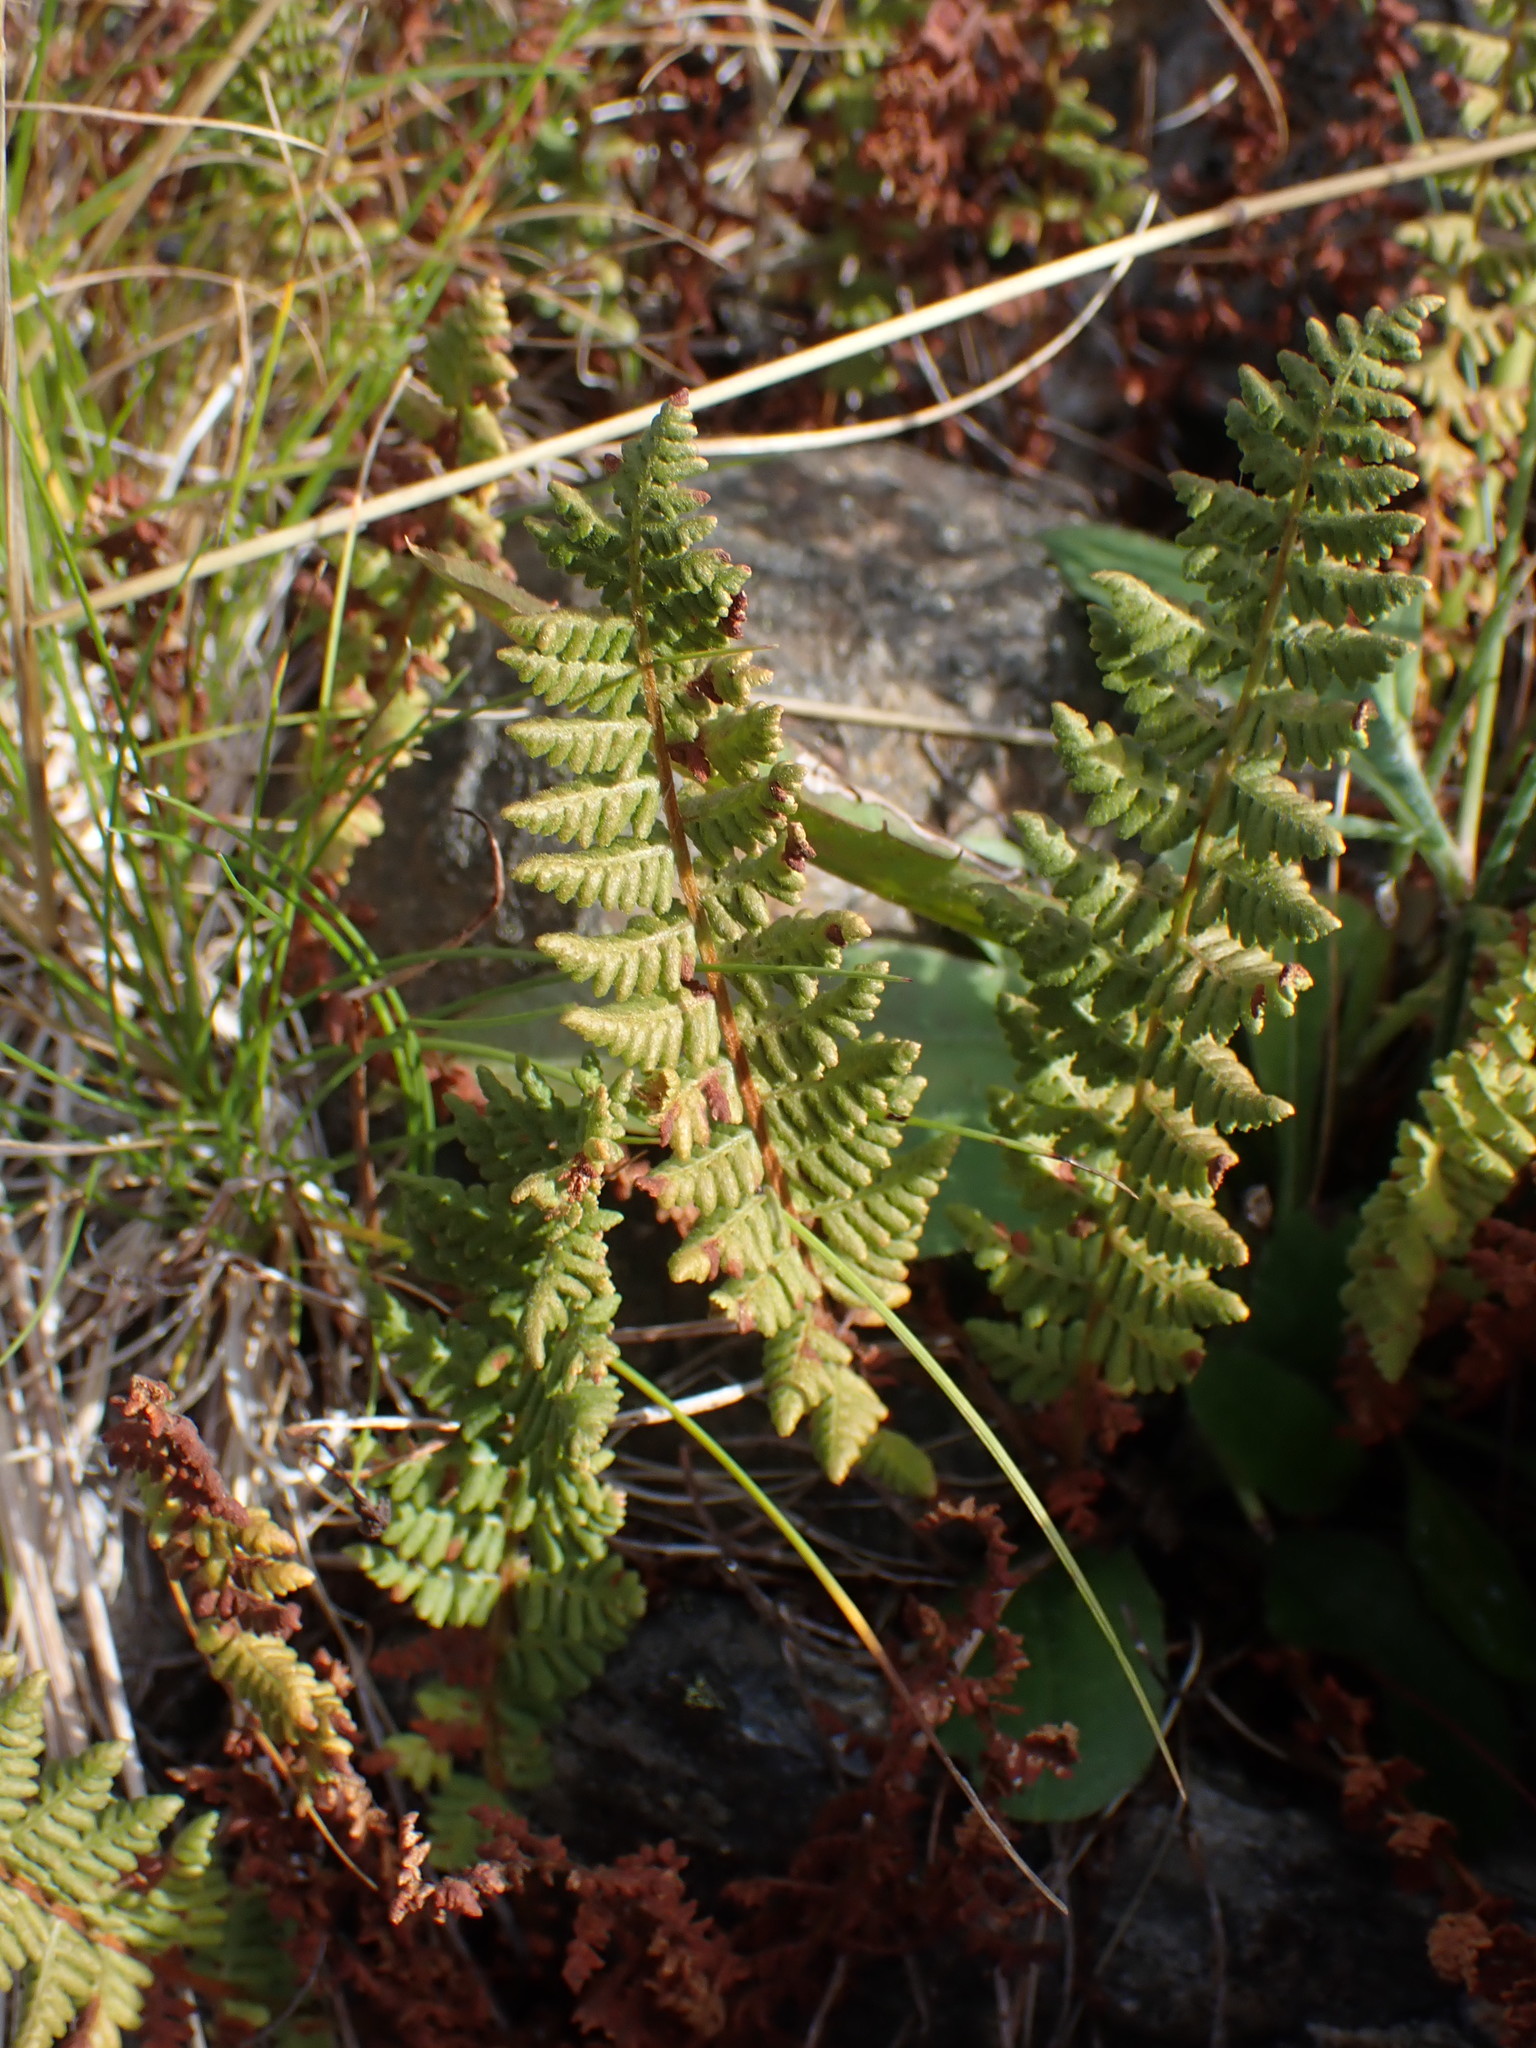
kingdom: Plantae
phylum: Tracheophyta
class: Polypodiopsida
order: Polypodiales
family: Woodsiaceae
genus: Physematium
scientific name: Physematium scopulinum
